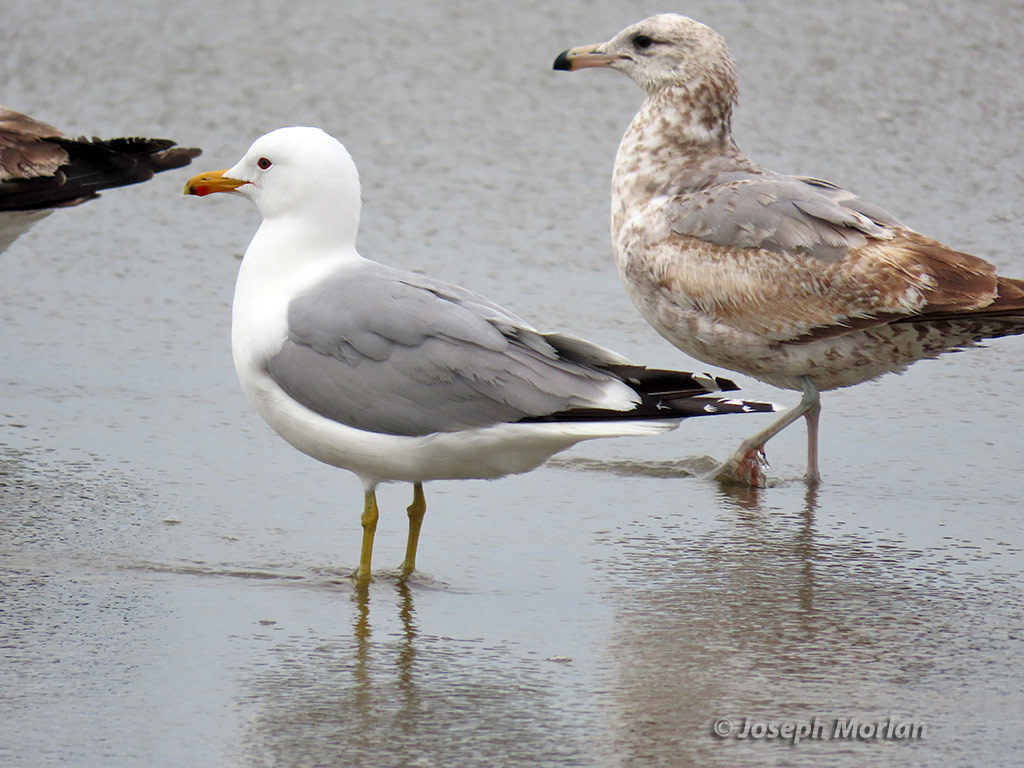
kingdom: Animalia
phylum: Chordata
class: Aves
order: Charadriiformes
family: Laridae
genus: Larus
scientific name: Larus californicus
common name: California gull
